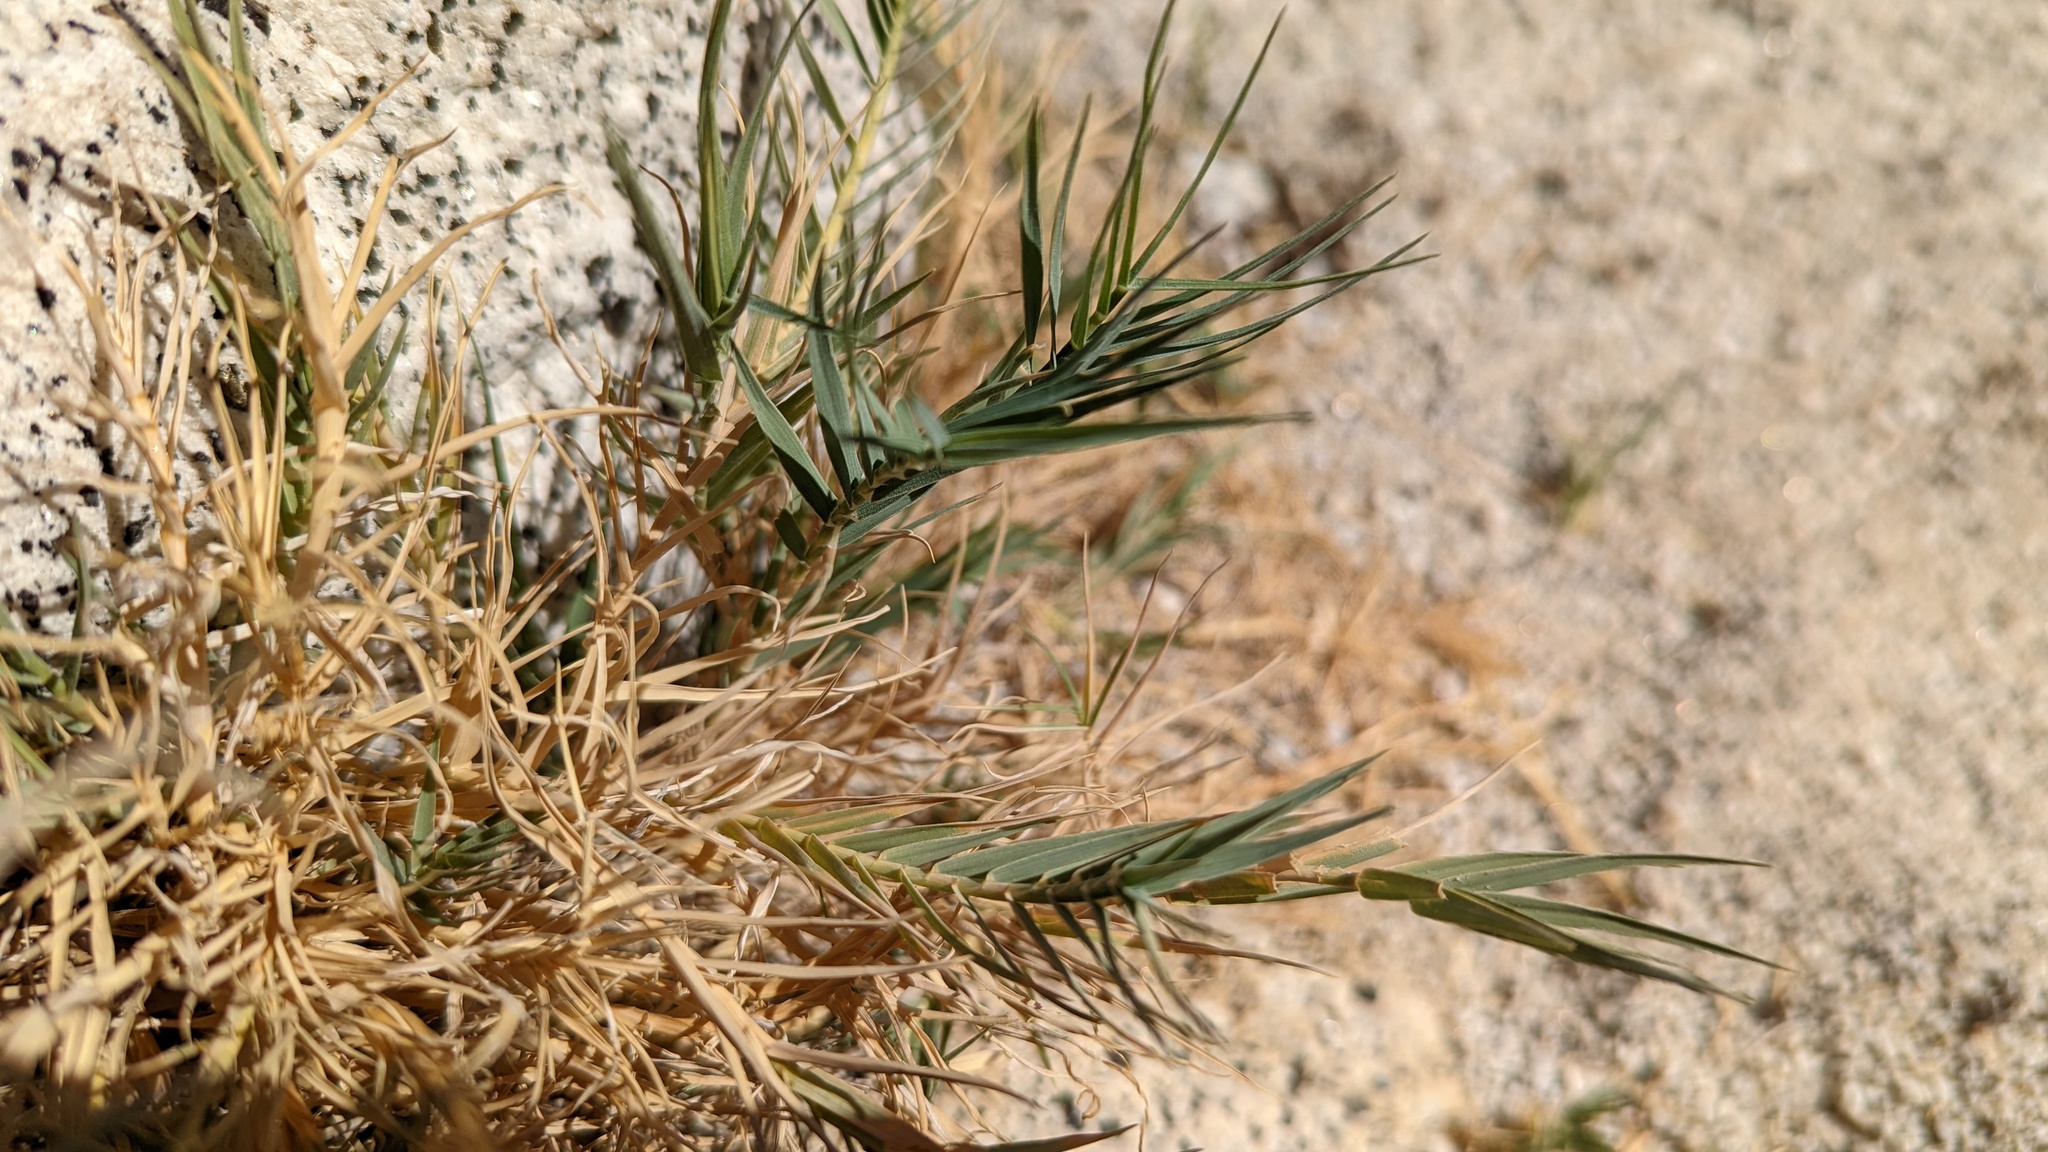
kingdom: Plantae
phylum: Tracheophyta
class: Liliopsida
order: Poales
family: Poaceae
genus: Distichlis
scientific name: Distichlis spicata
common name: Saltgrass
